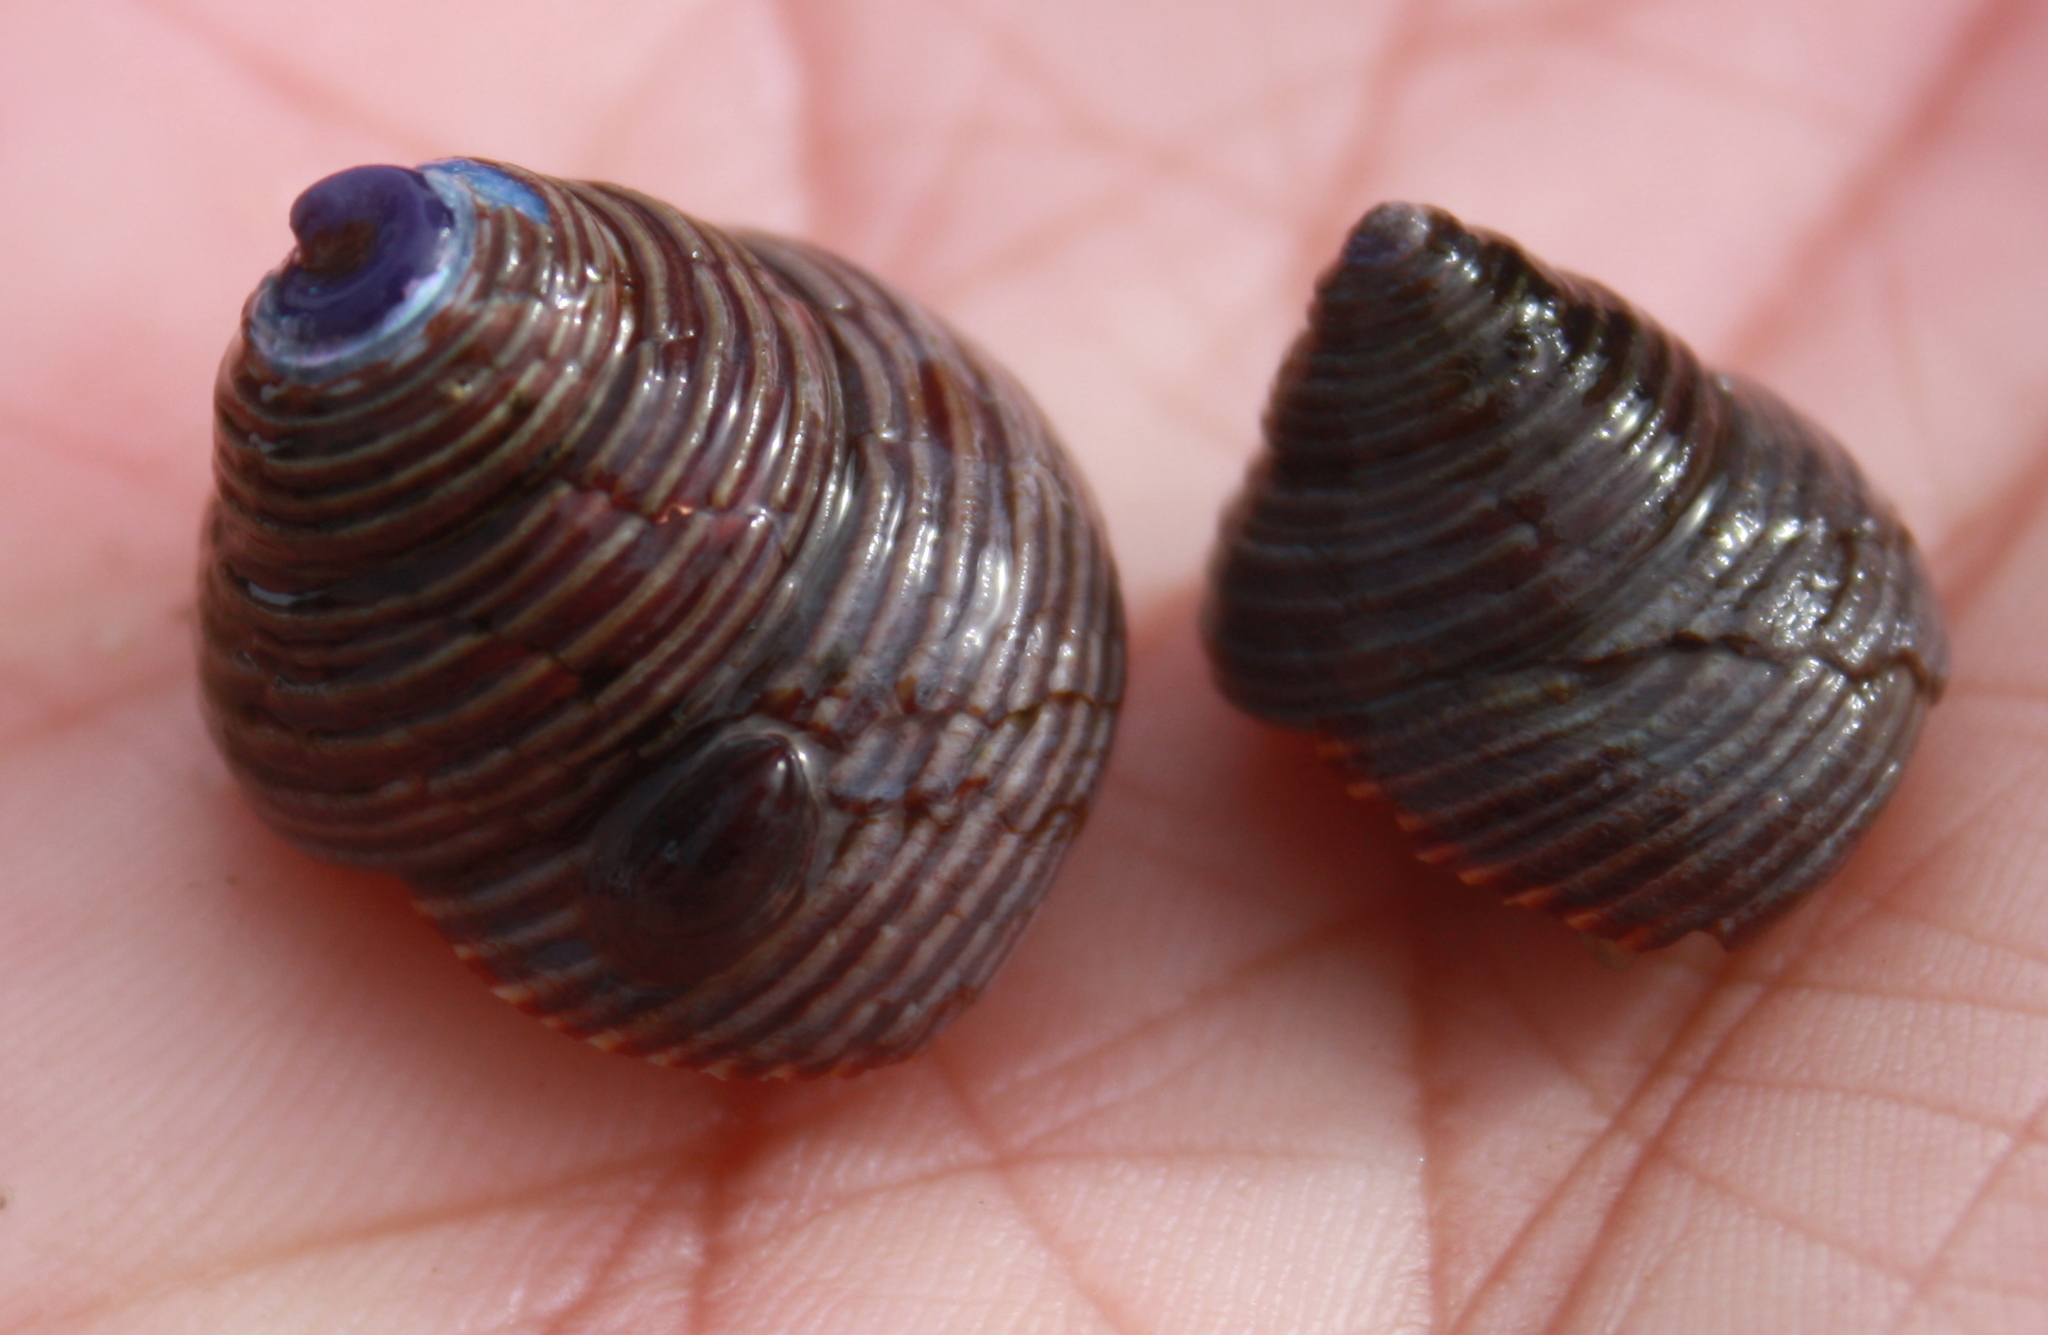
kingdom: Animalia
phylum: Mollusca
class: Gastropoda
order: Trochida
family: Calliostomatidae
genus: Calliostoma
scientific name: Calliostoma ligatum
